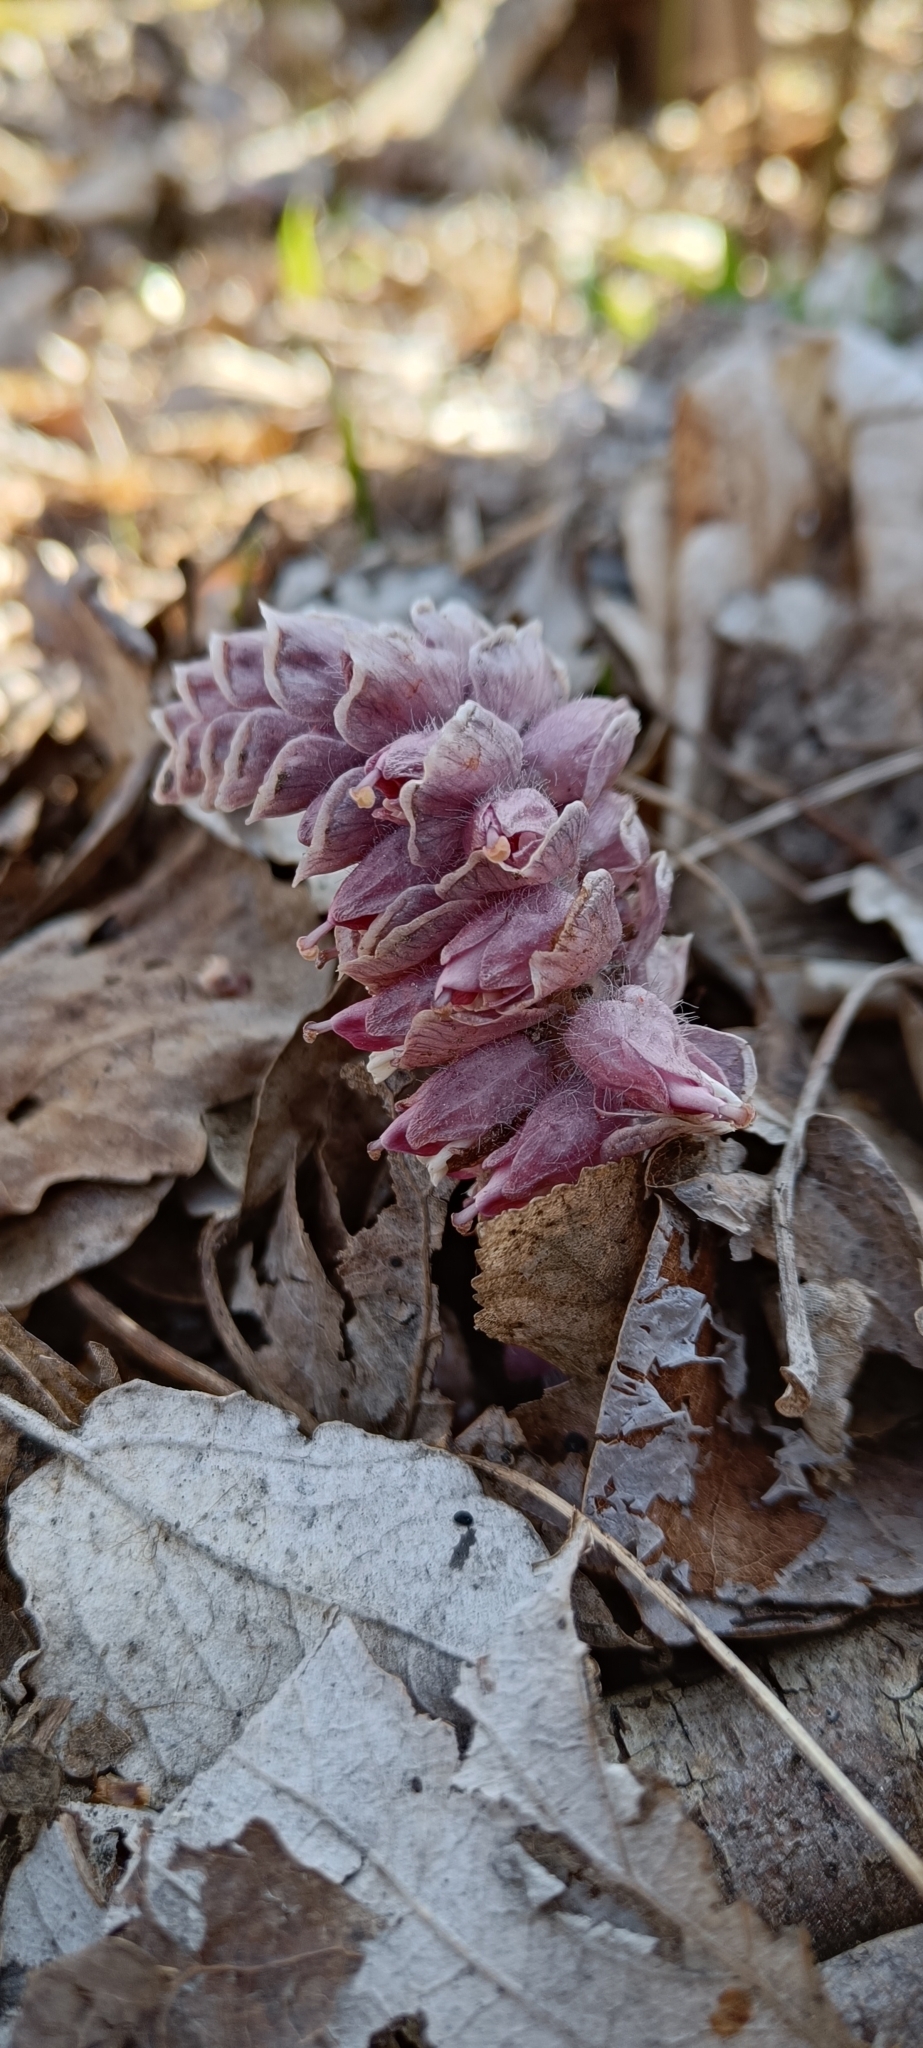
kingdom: Plantae
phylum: Tracheophyta
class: Magnoliopsida
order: Lamiales
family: Orobanchaceae
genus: Lathraea
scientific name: Lathraea squamaria
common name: Toothwort
